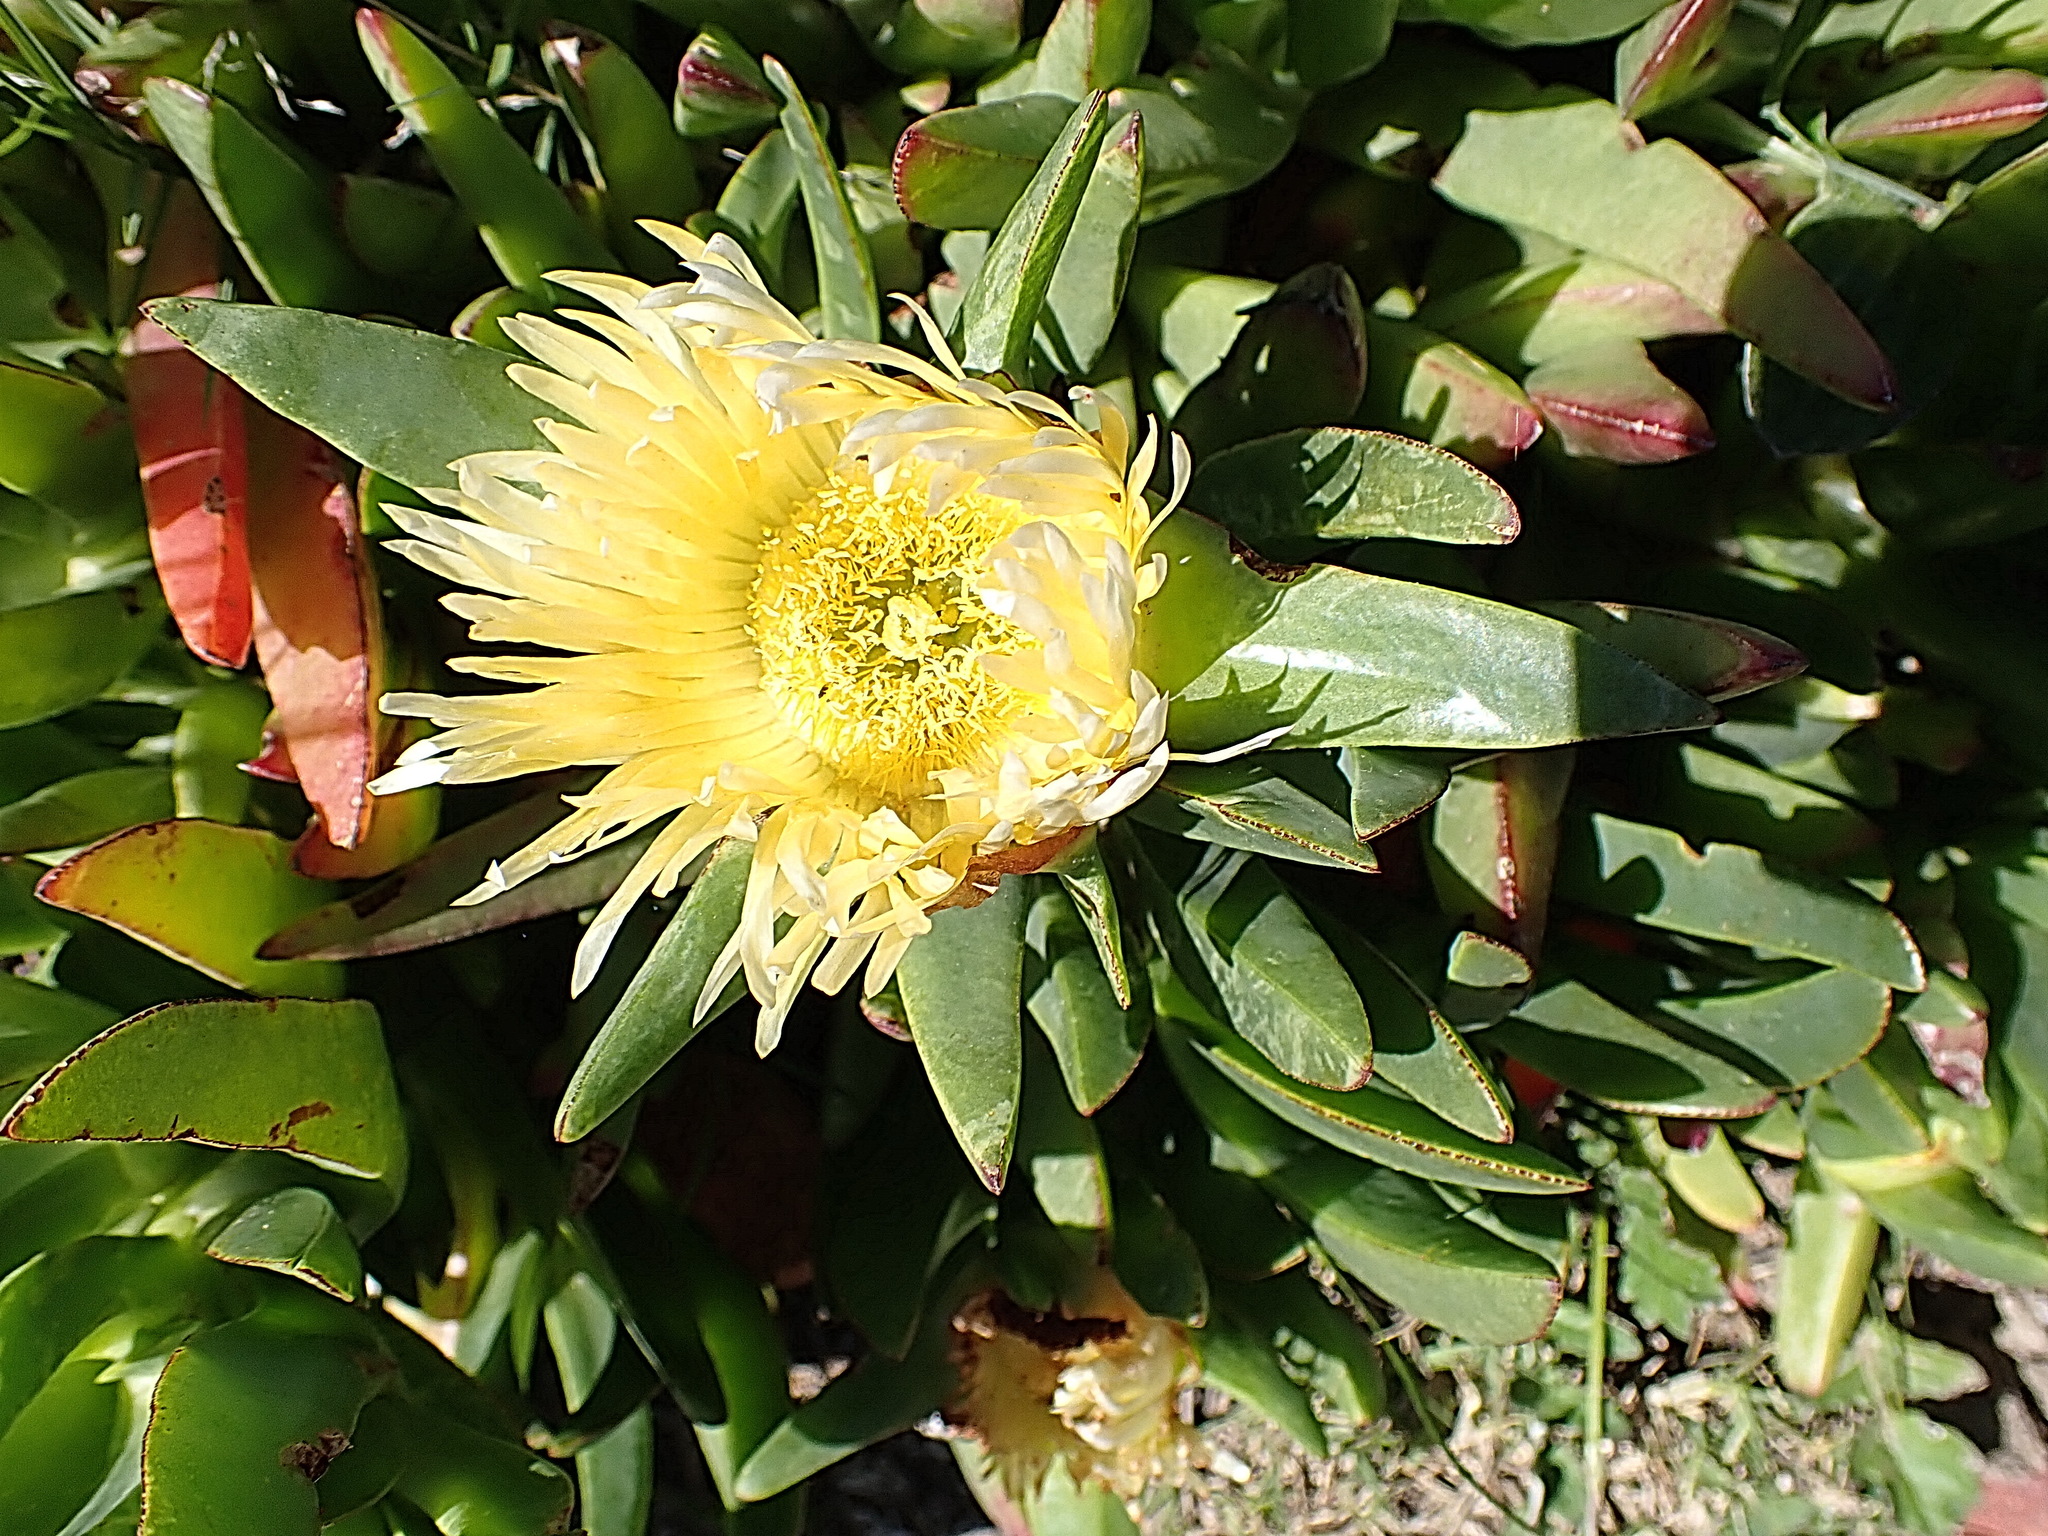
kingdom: Plantae
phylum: Tracheophyta
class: Magnoliopsida
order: Caryophyllales
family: Aizoaceae
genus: Carpobrotus
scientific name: Carpobrotus edulis
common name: Hottentot-fig
